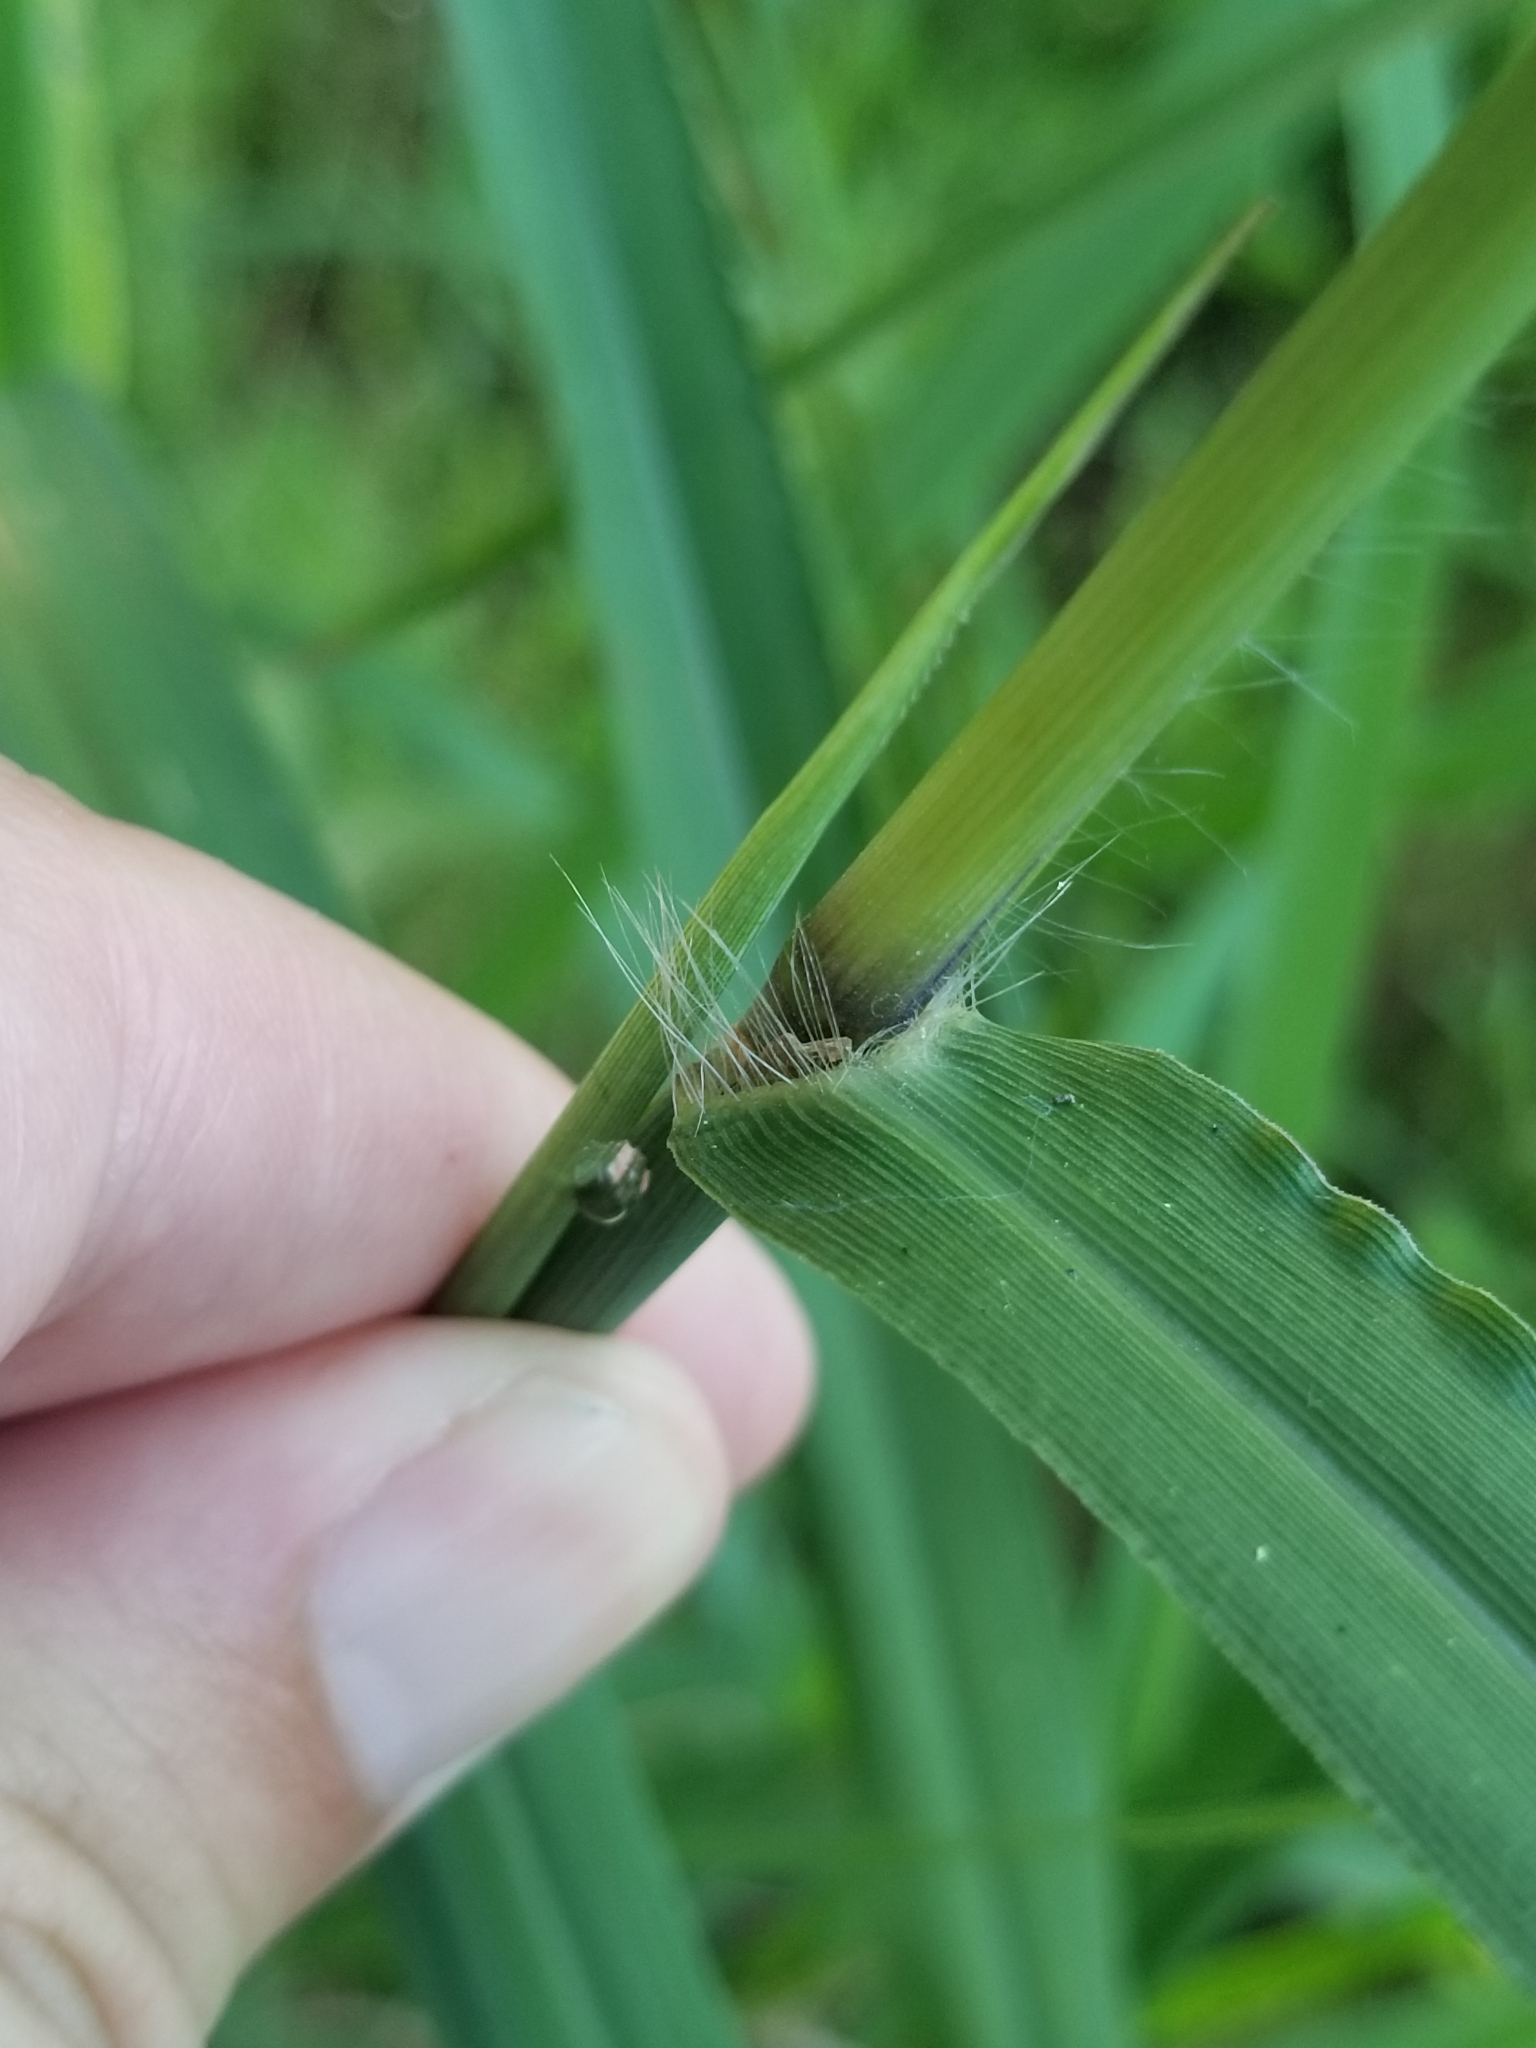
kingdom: Plantae
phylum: Tracheophyta
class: Liliopsida
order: Poales
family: Poaceae
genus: Paspalum
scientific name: Paspalum urvillei
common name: Vasey's grass
